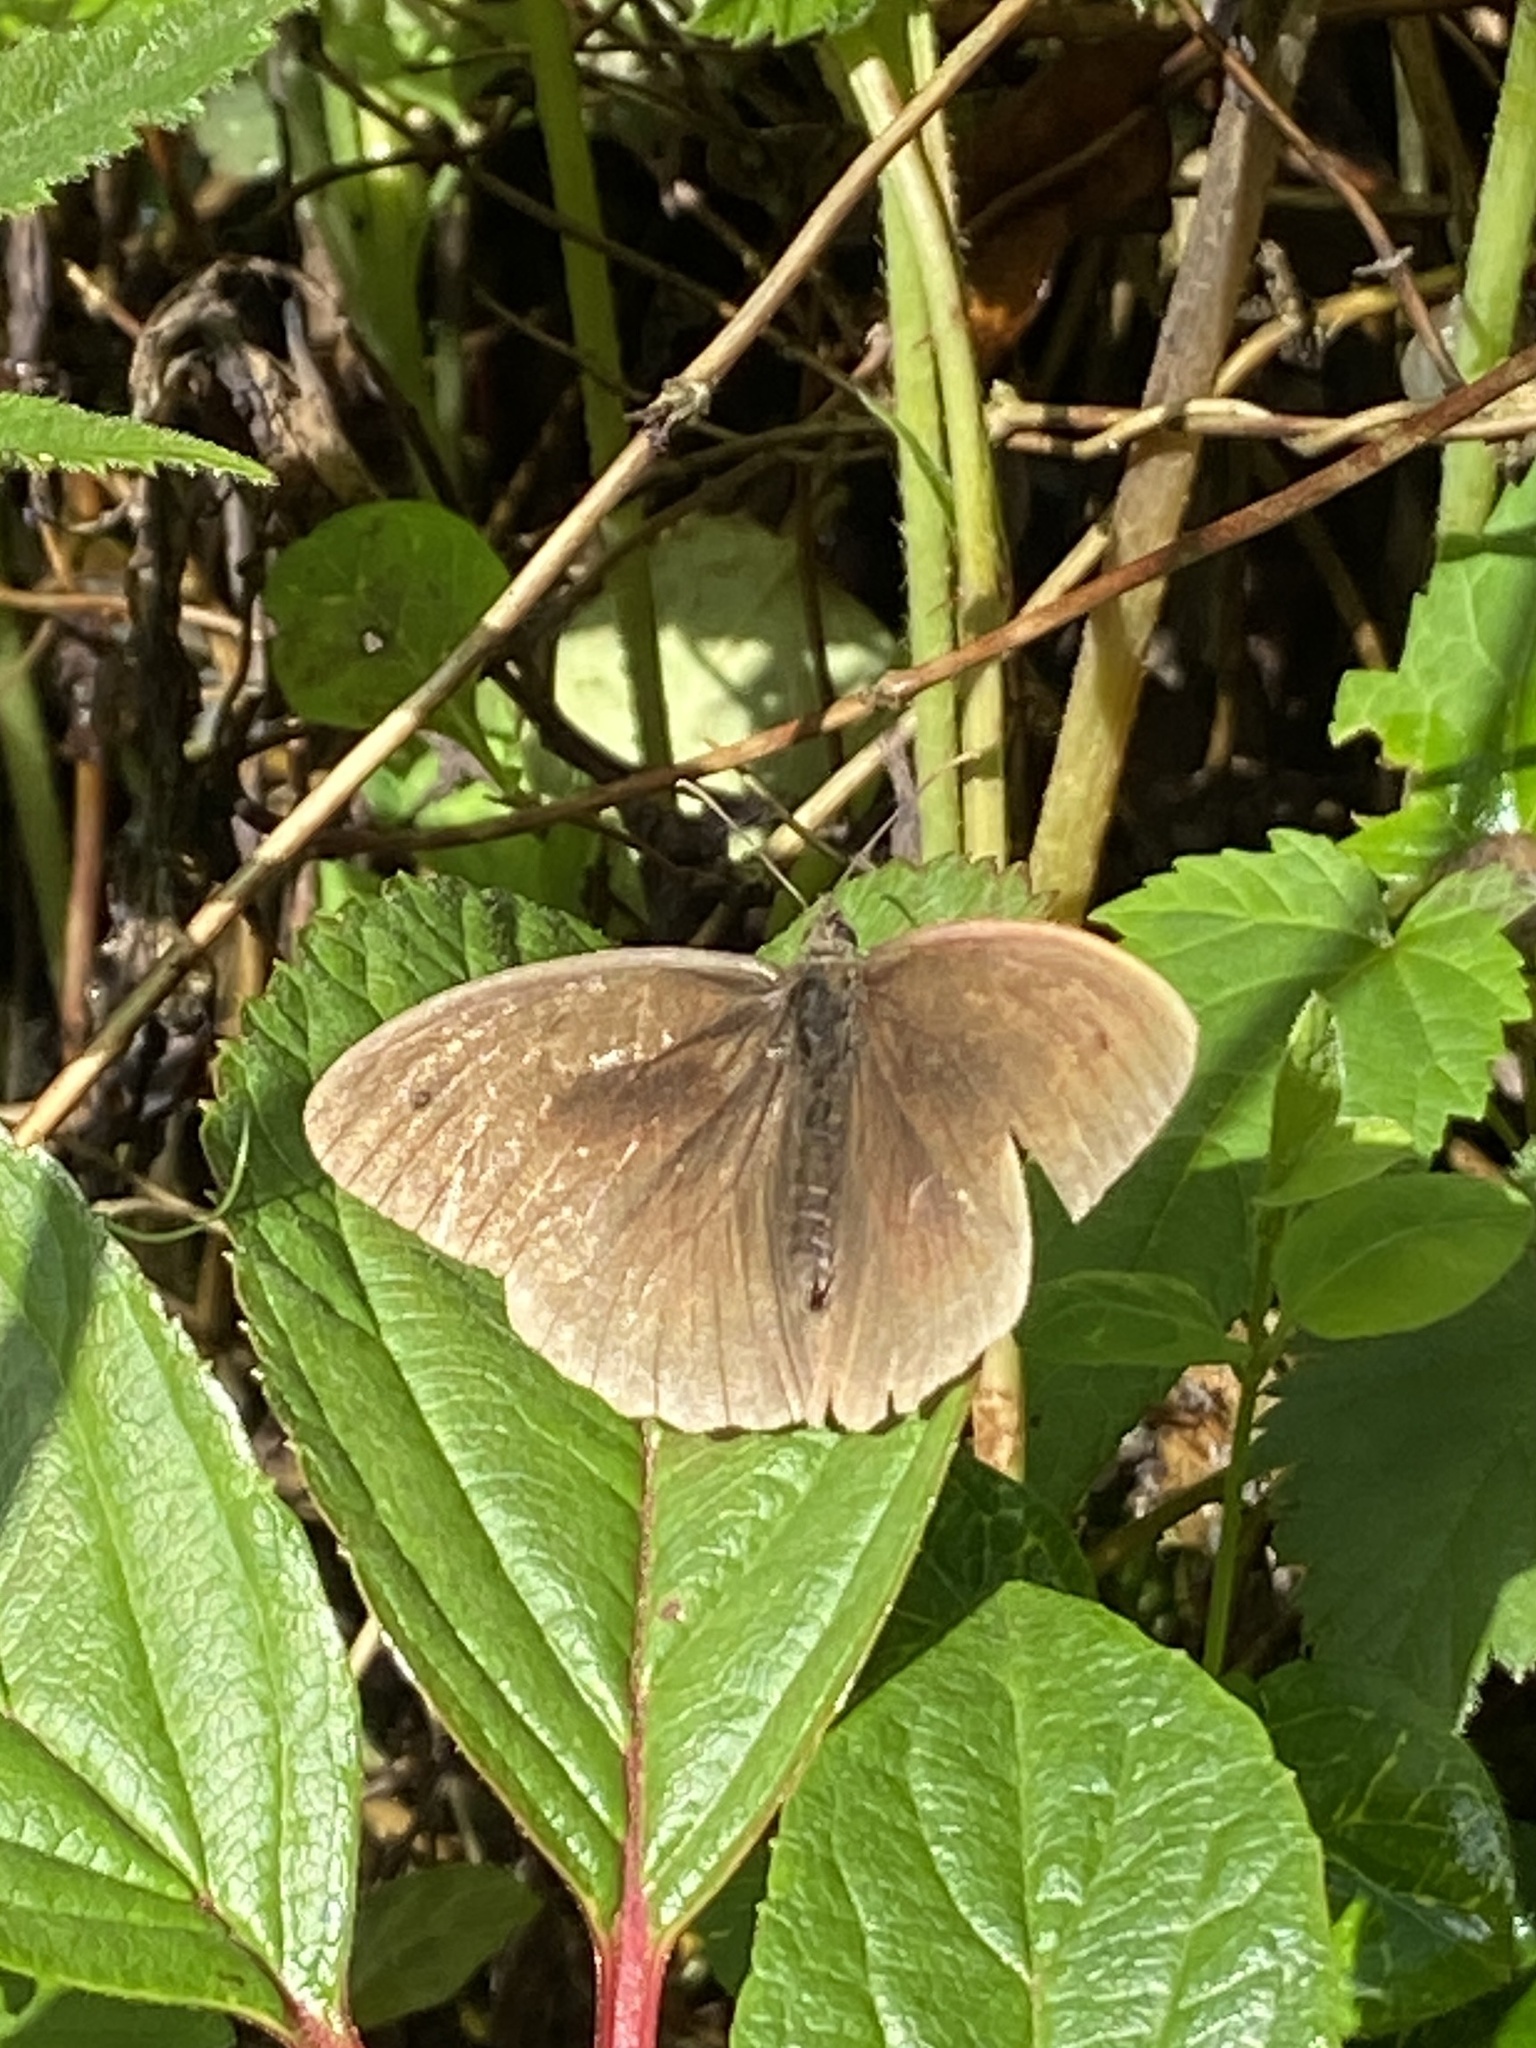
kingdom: Animalia
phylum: Arthropoda
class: Insecta
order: Lepidoptera
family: Nymphalidae
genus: Aphantopus
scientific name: Aphantopus hyperantus
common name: Ringlet
